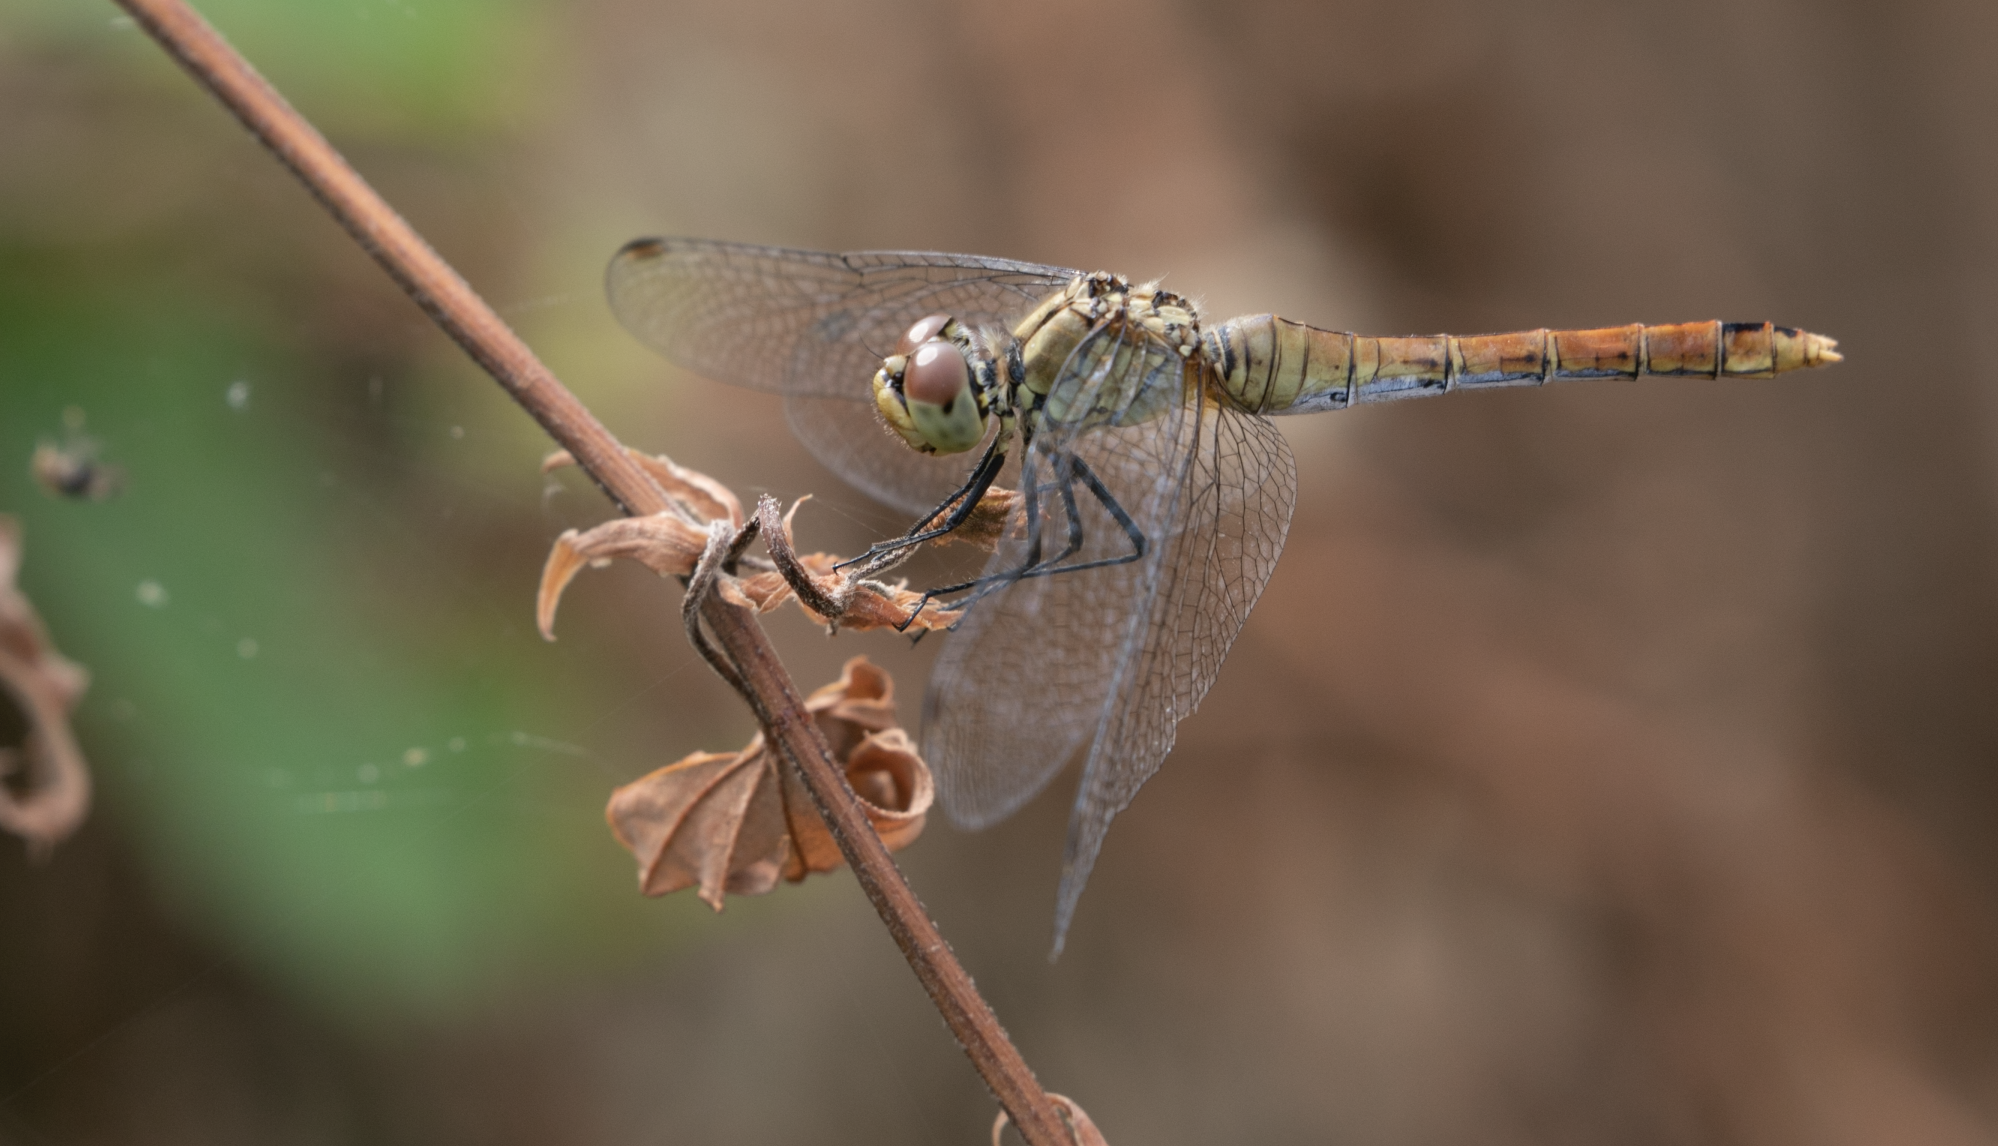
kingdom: Animalia
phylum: Arthropoda
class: Insecta
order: Odonata
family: Libellulidae
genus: Sympetrum
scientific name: Sympetrum sanguineum
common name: Ruddy darter
